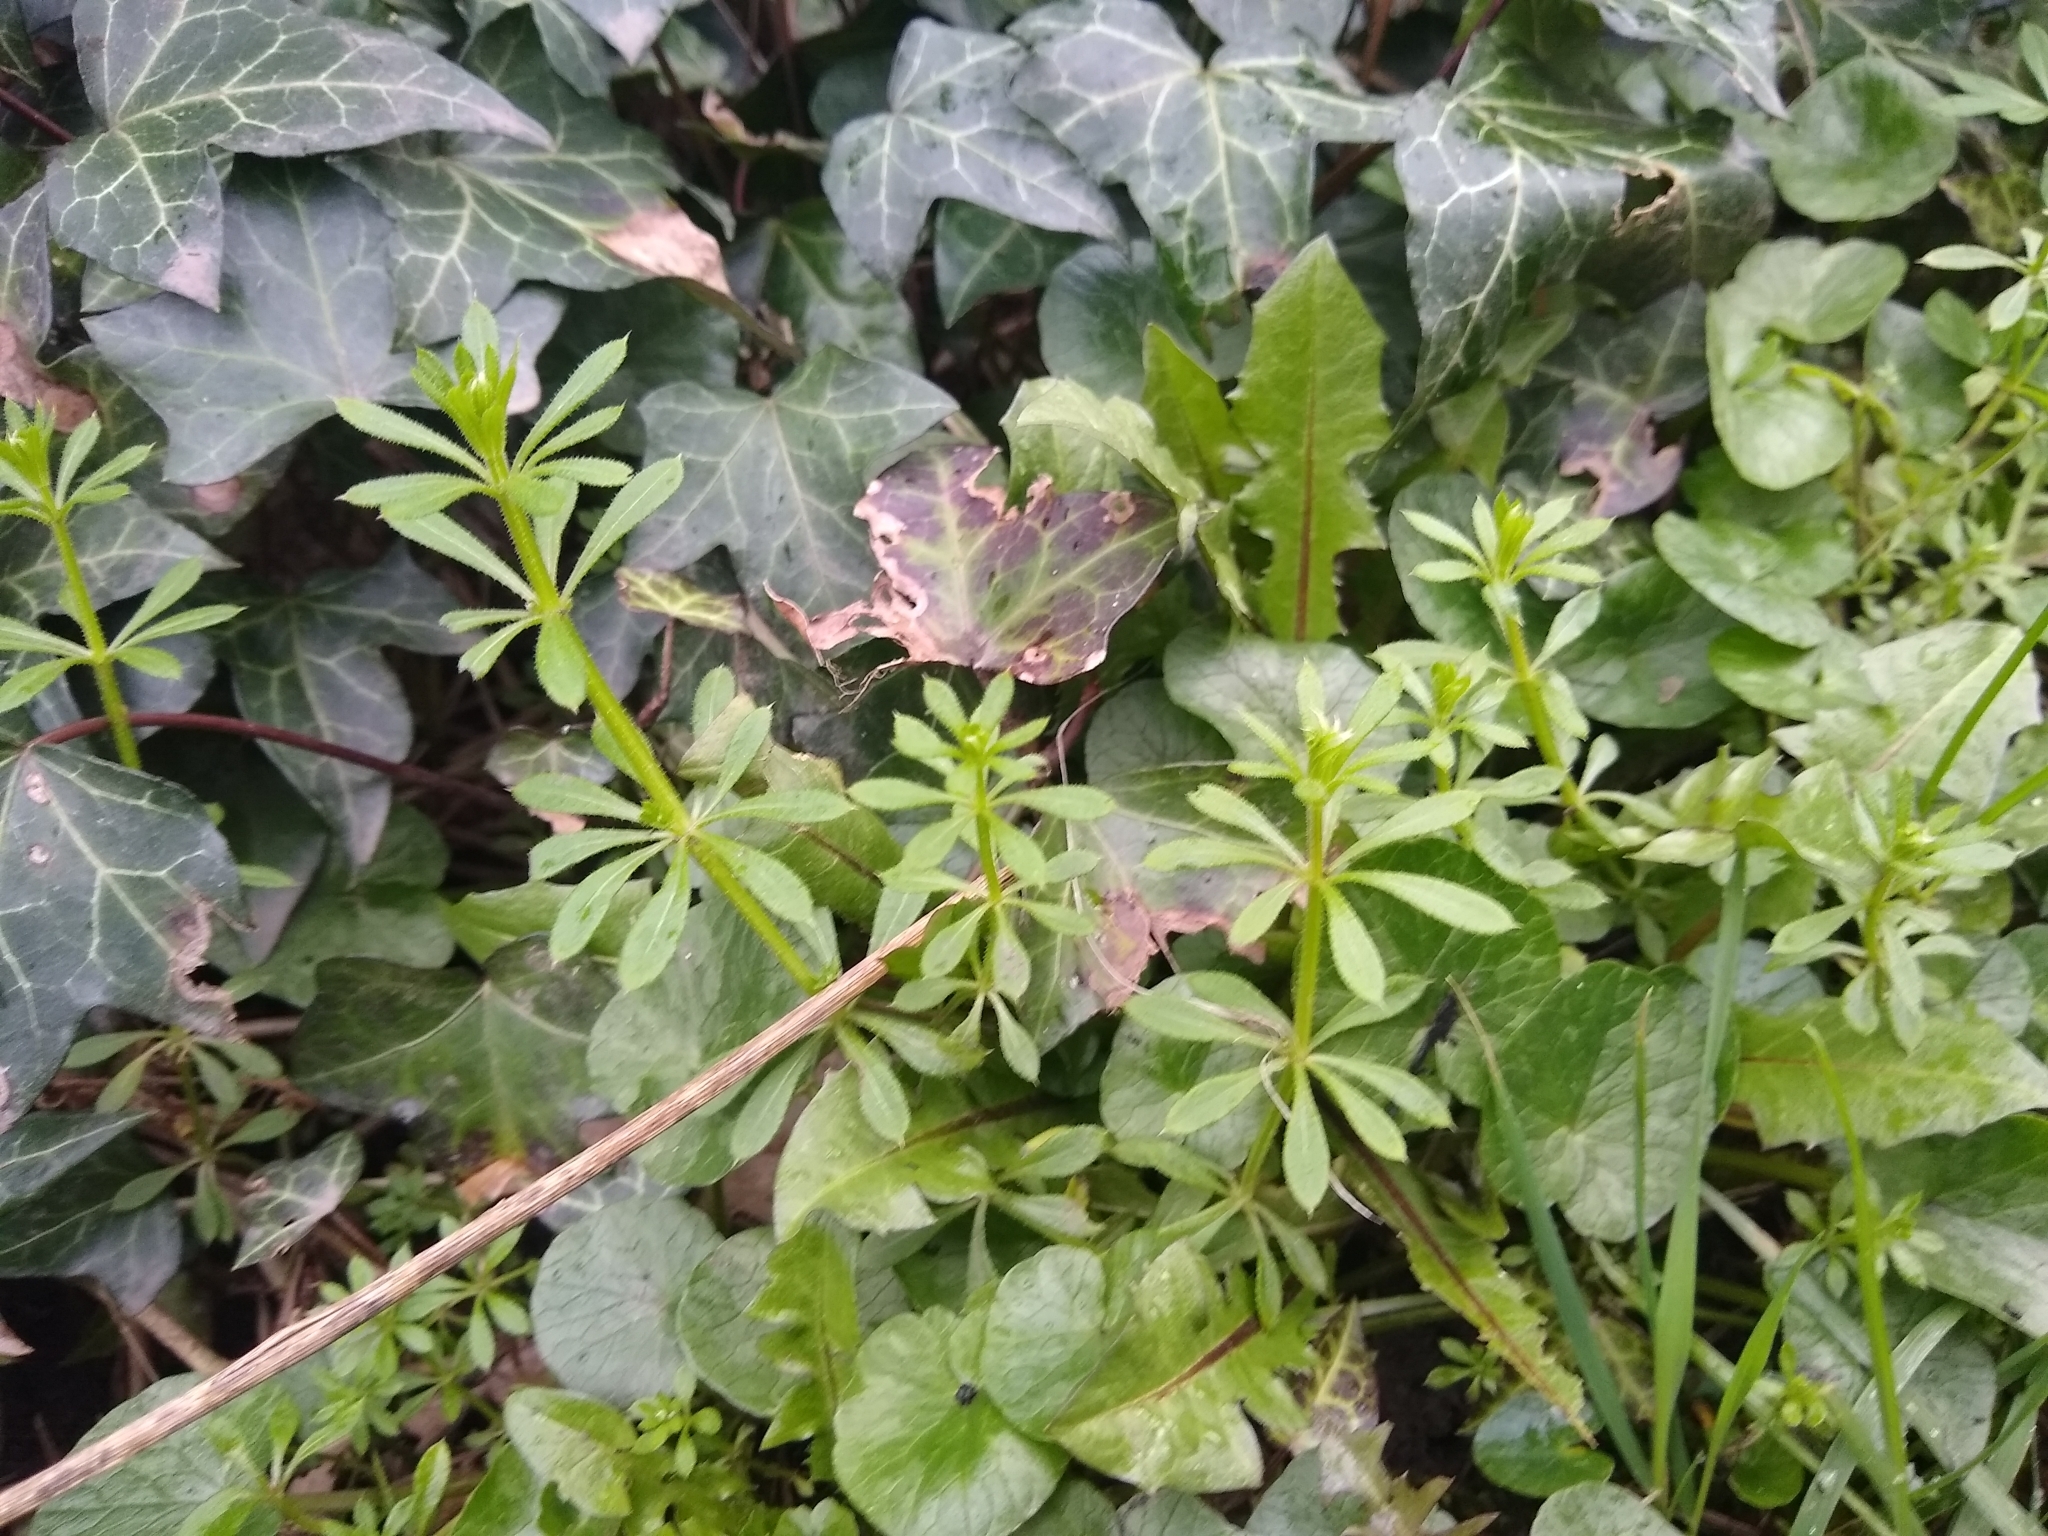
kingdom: Plantae
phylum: Tracheophyta
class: Magnoliopsida
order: Gentianales
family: Rubiaceae
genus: Galium
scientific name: Galium aparine
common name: Cleavers
